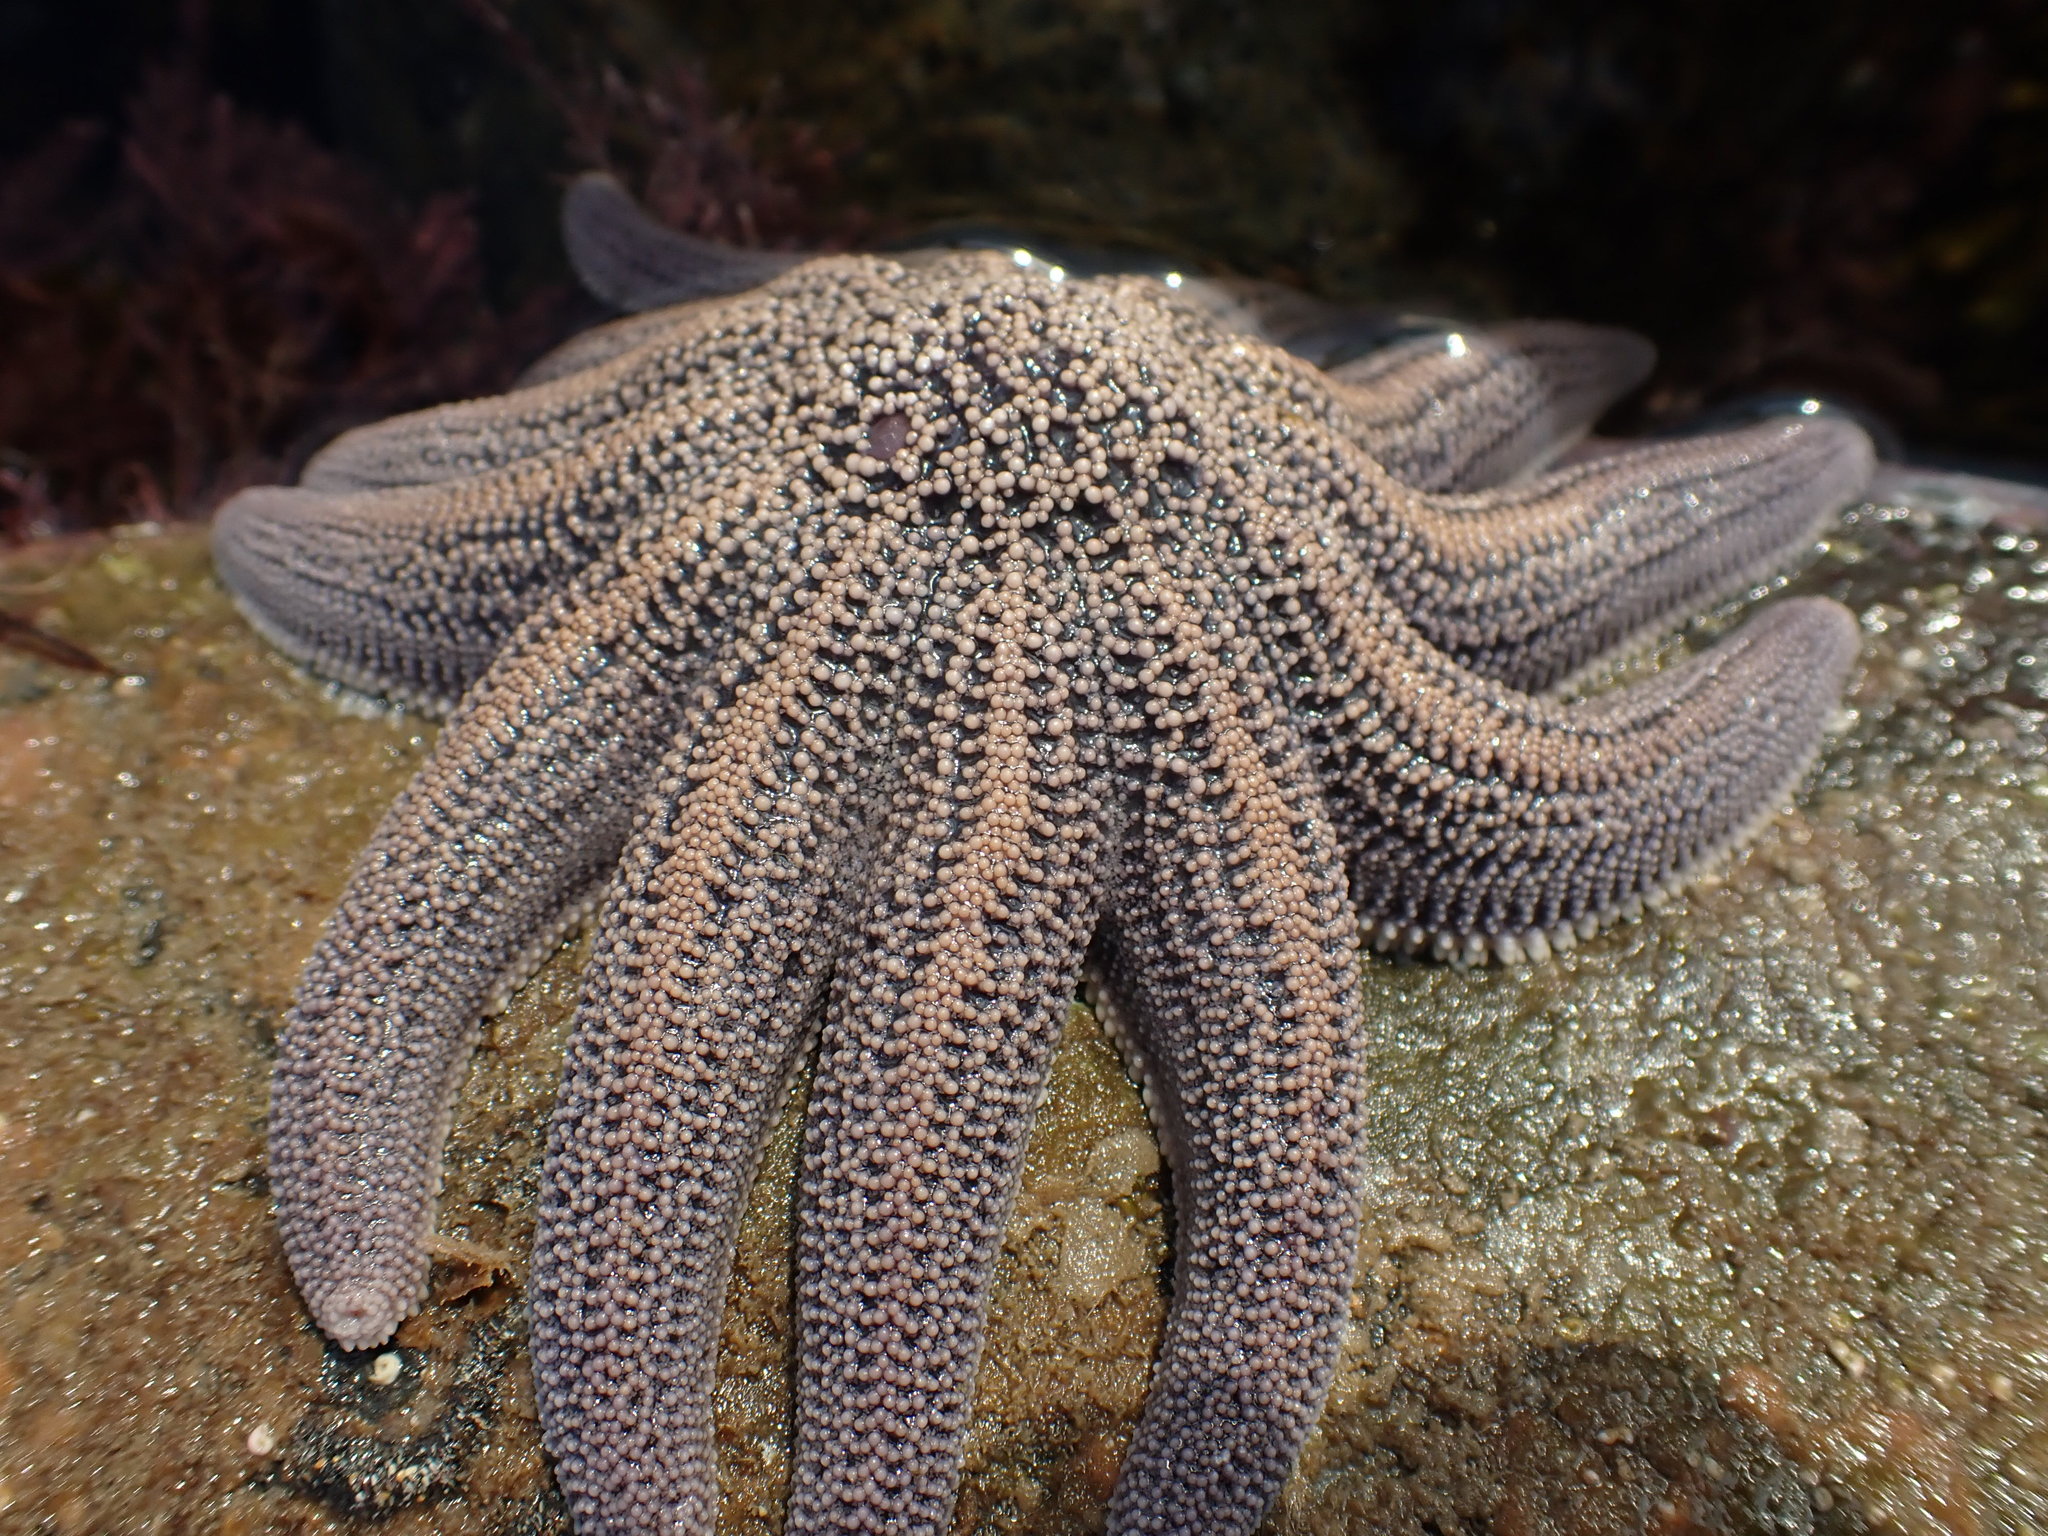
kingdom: Animalia
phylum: Echinodermata
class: Asteroidea
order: Forcipulatida
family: Stichasteridae
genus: Stichaster
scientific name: Stichaster australis
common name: Reef starfish
